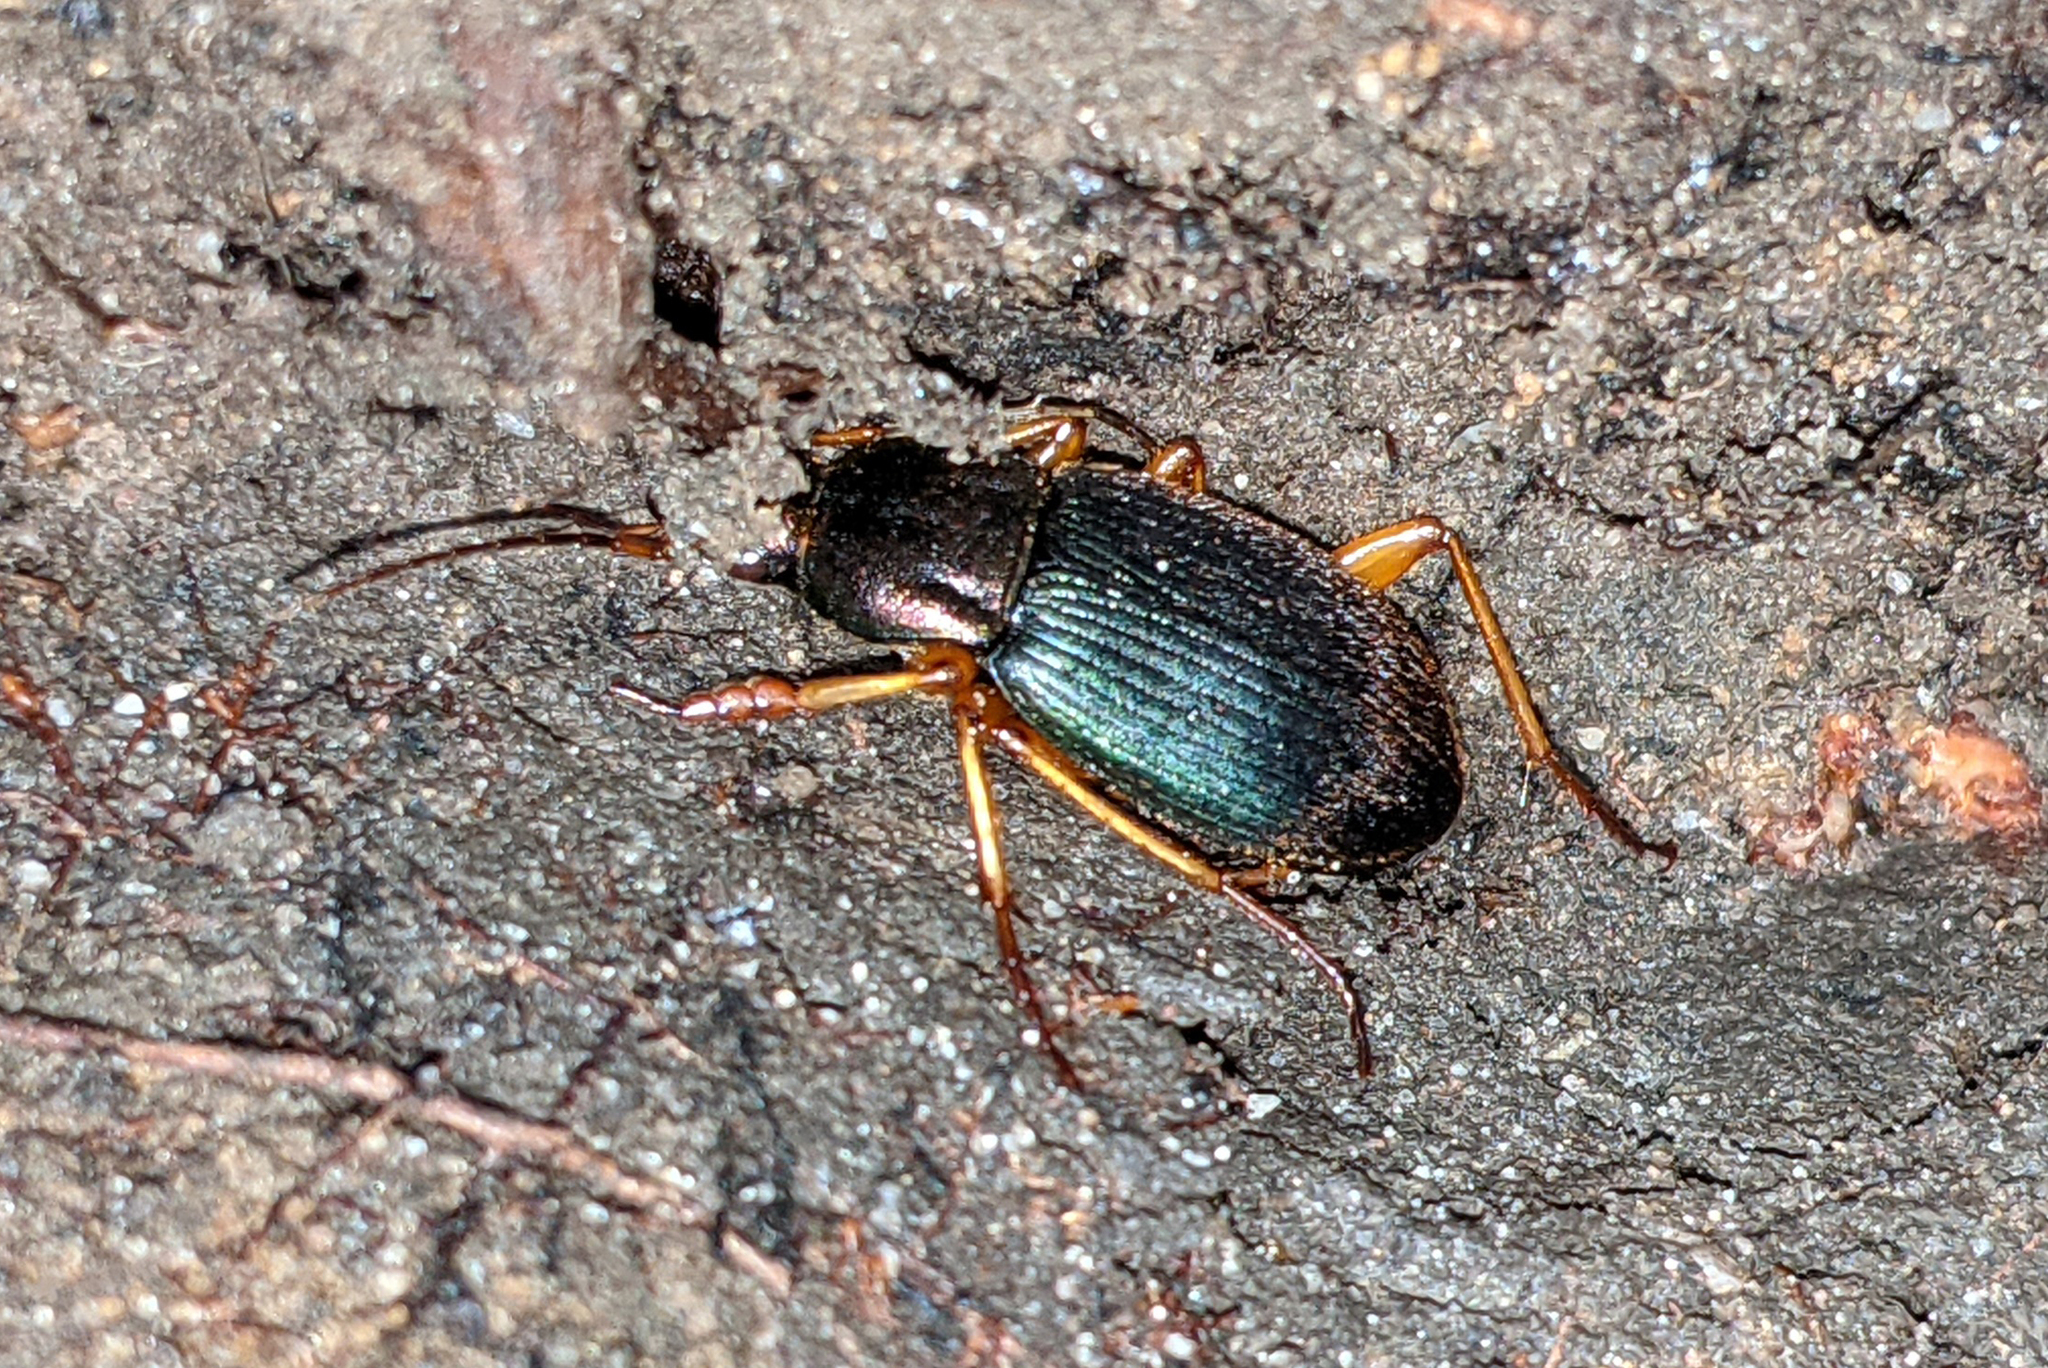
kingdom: Animalia
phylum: Arthropoda
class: Insecta
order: Coleoptera
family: Carabidae
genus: Chlaenius
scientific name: Chlaenius aestivus
